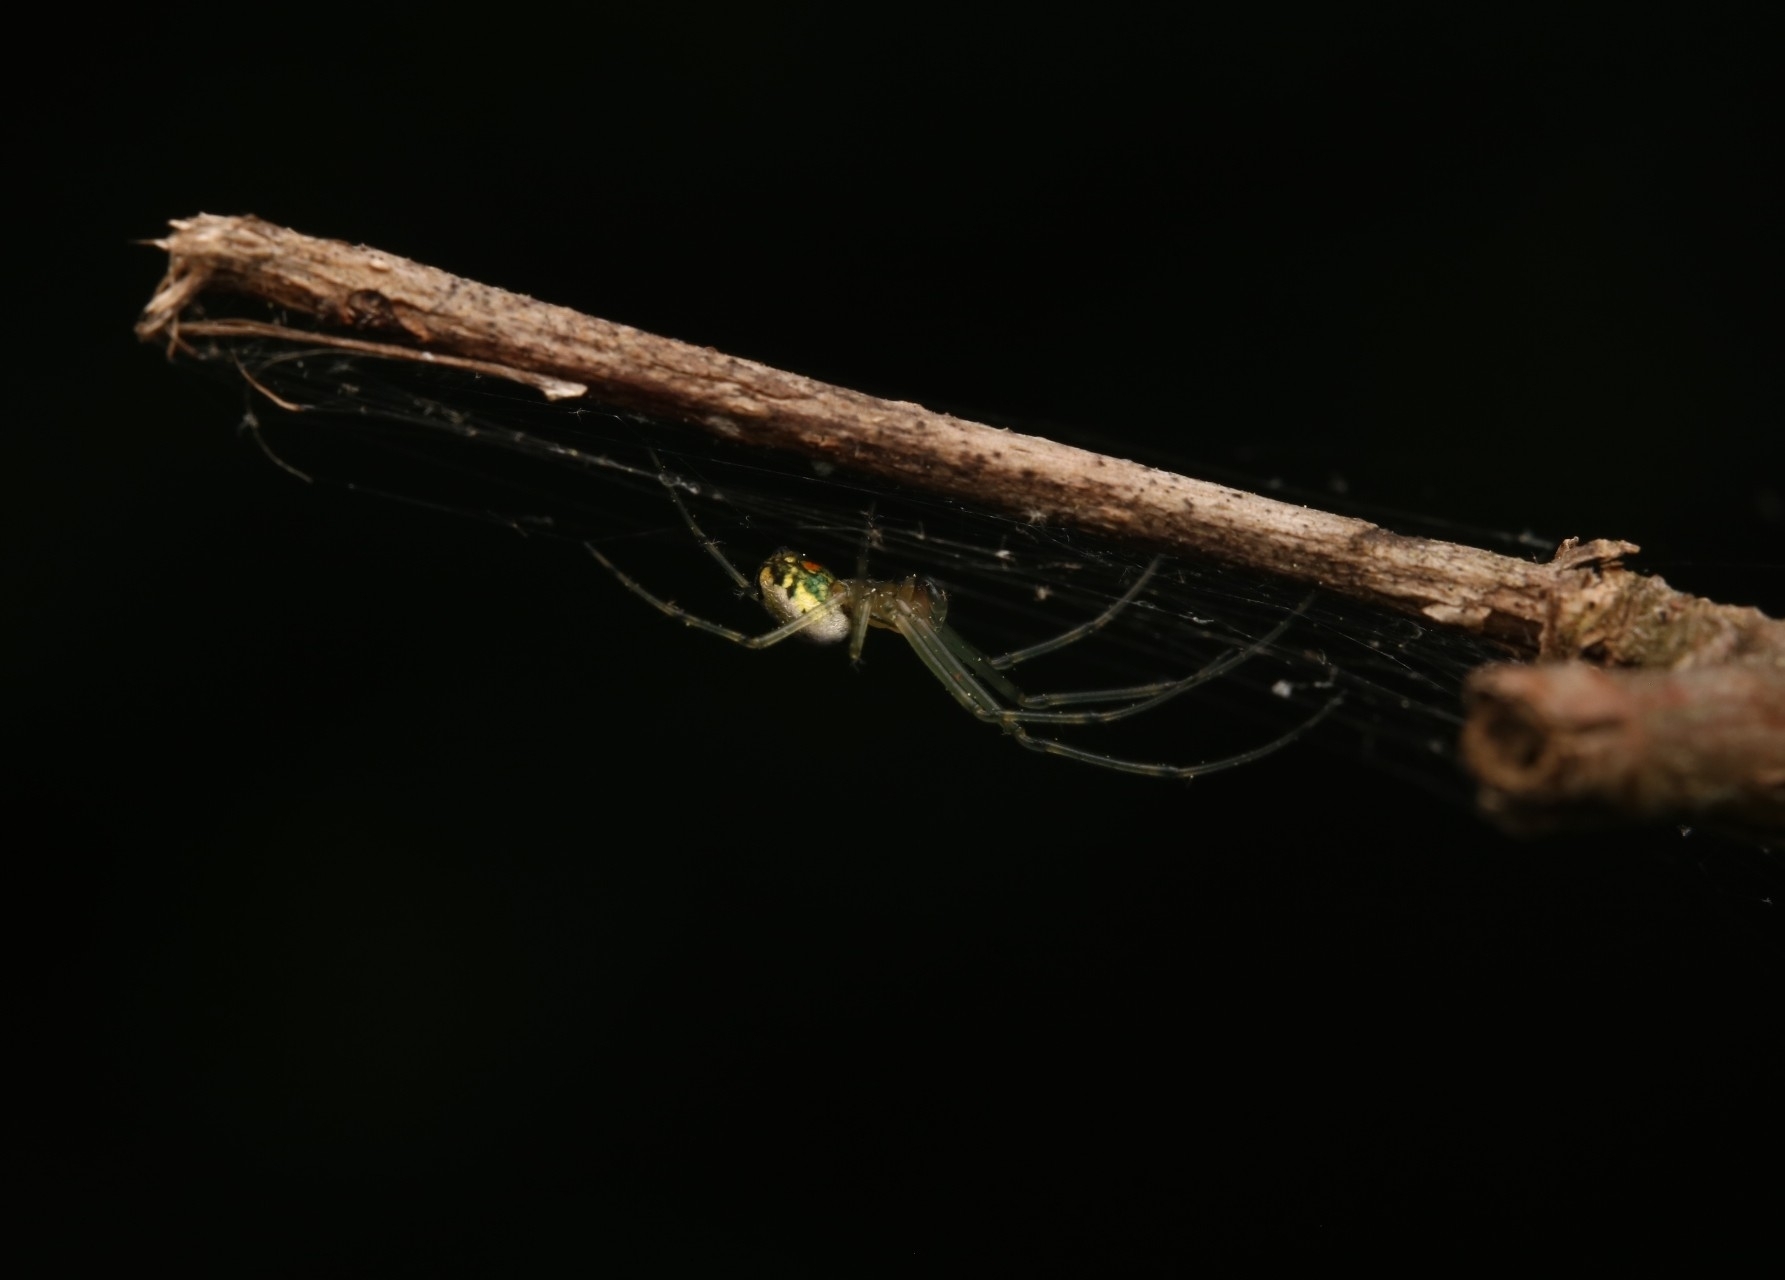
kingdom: Animalia
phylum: Arthropoda
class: Arachnida
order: Araneae
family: Tetragnathidae
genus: Leucauge
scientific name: Leucauge venusta
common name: Longjawed orb weavers
